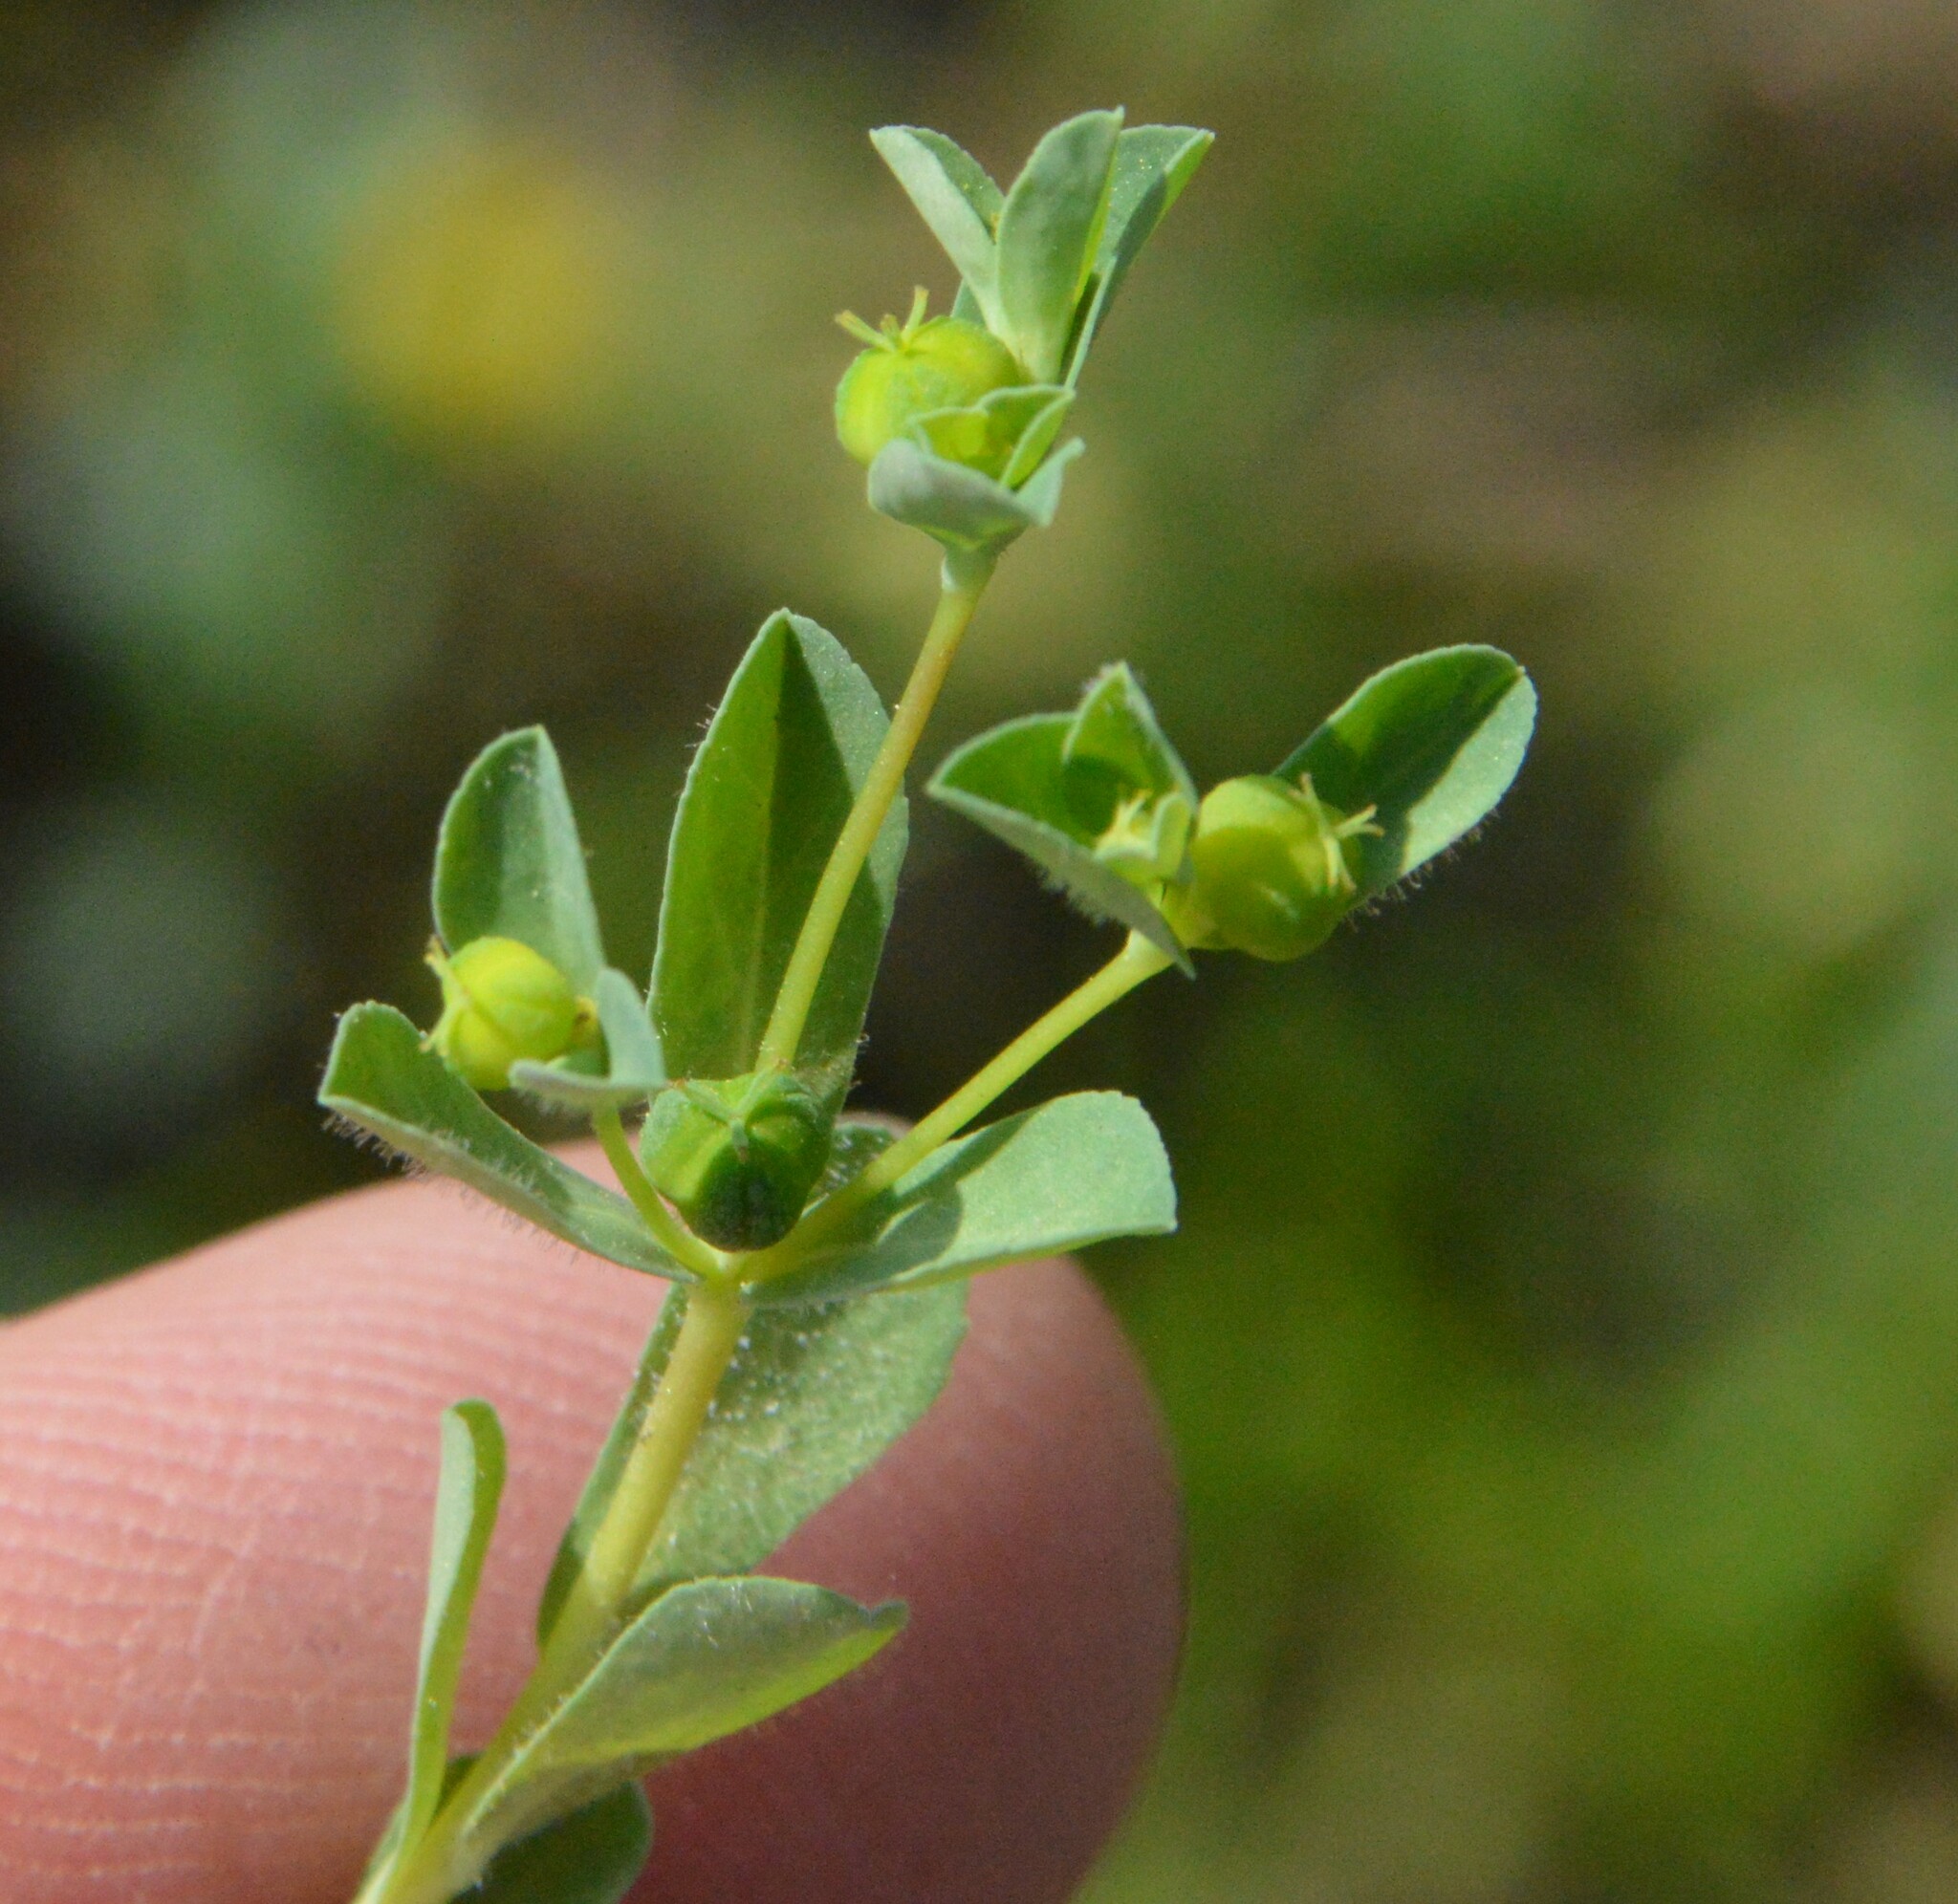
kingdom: Plantae
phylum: Tracheophyta
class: Magnoliopsida
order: Malpighiales
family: Euphorbiaceae
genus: Euphorbia
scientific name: Euphorbia texana
